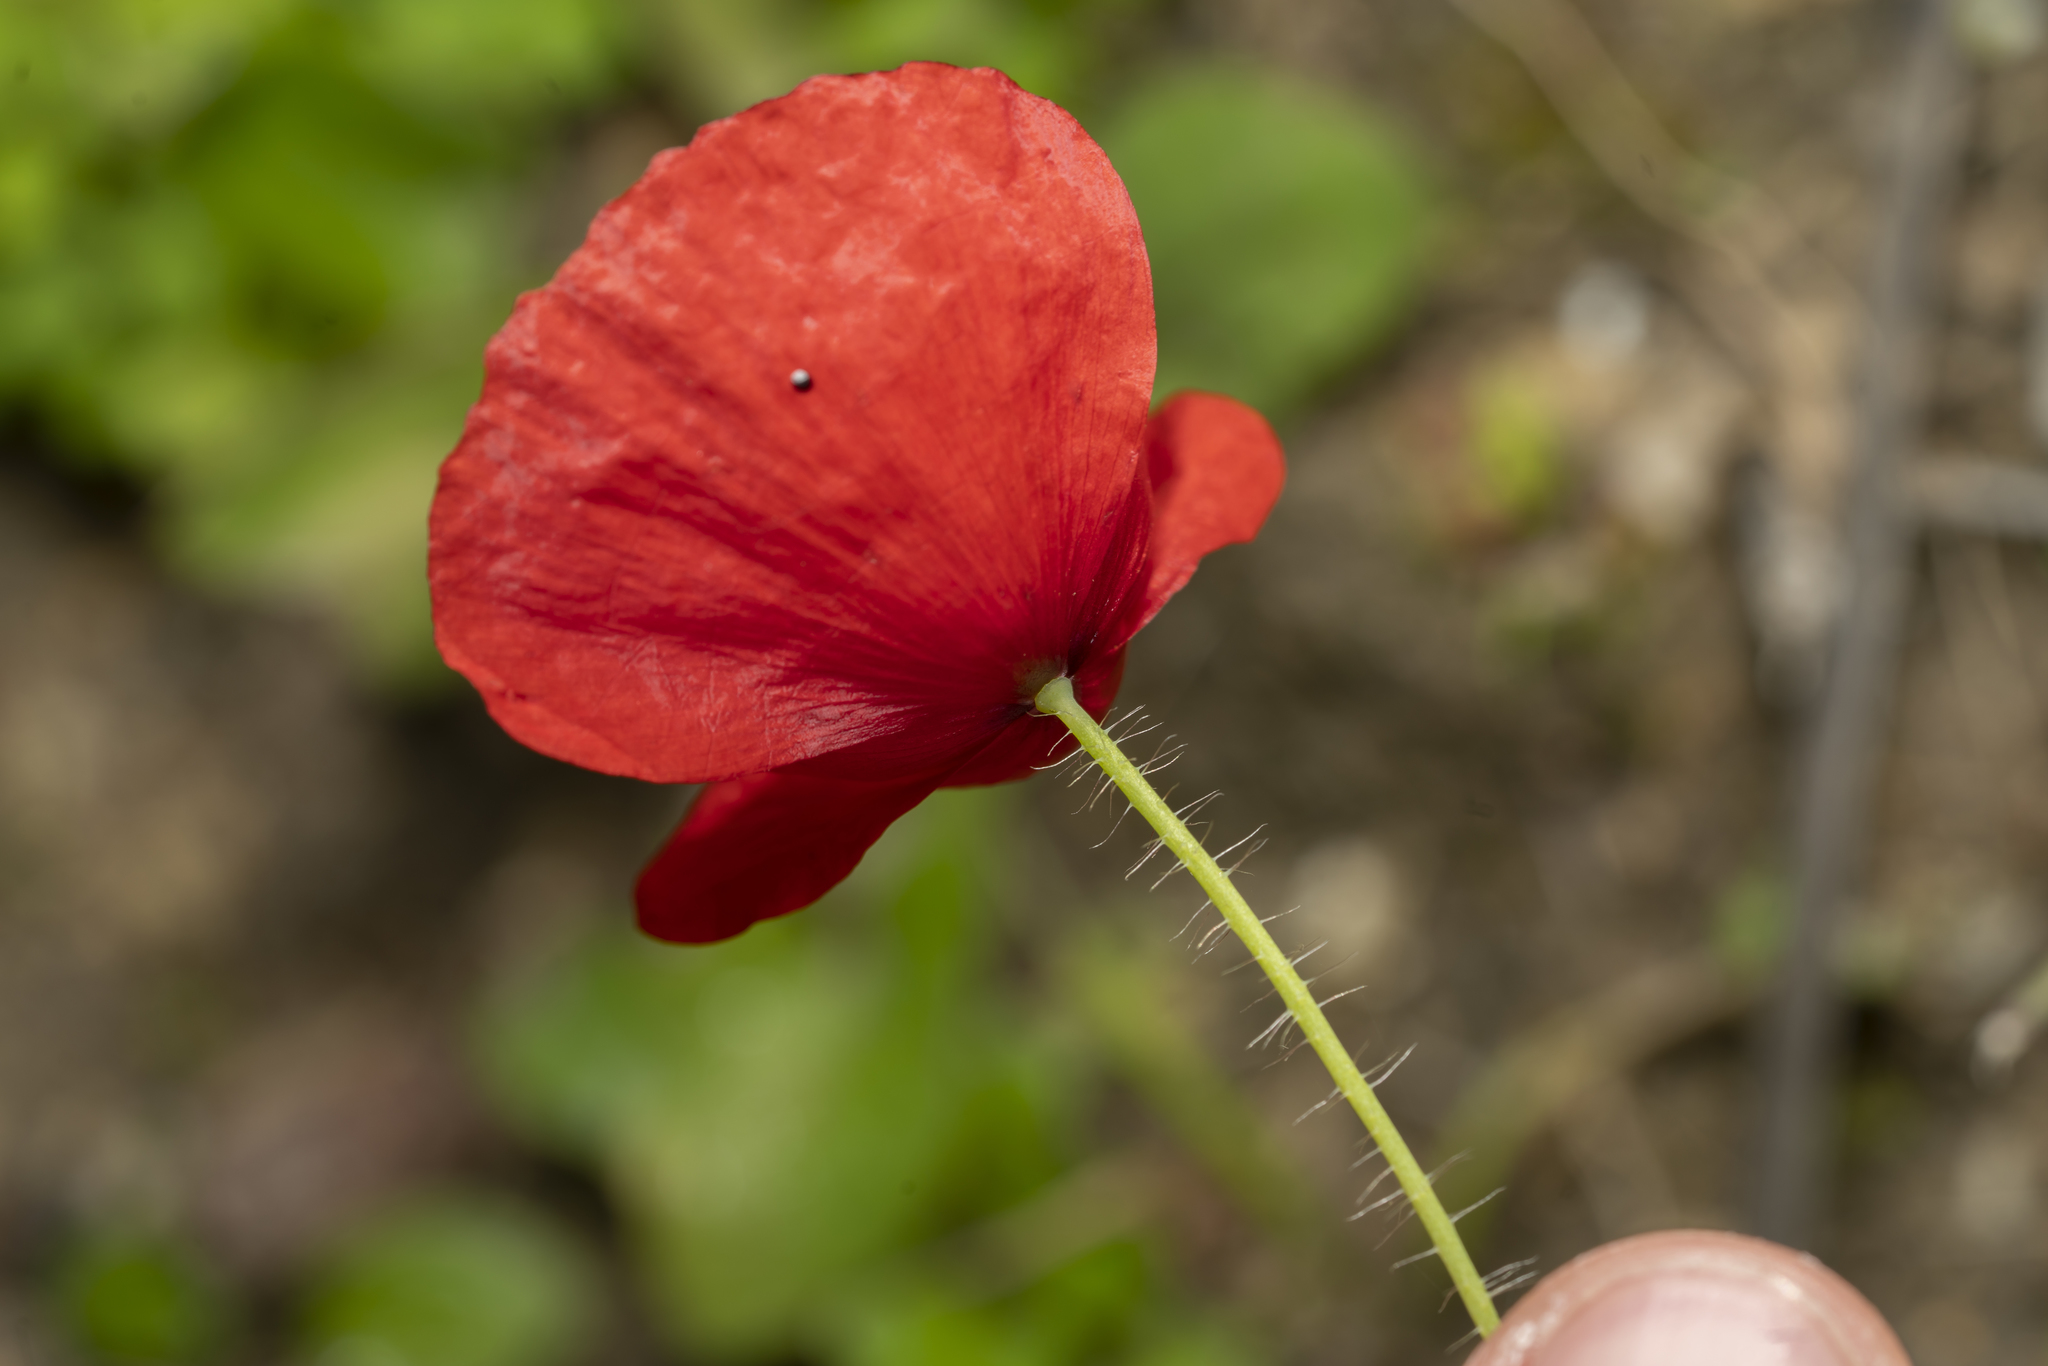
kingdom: Plantae
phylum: Tracheophyta
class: Magnoliopsida
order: Ranunculales
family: Papaveraceae
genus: Papaver
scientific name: Papaver rhoeas
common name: Corn poppy
